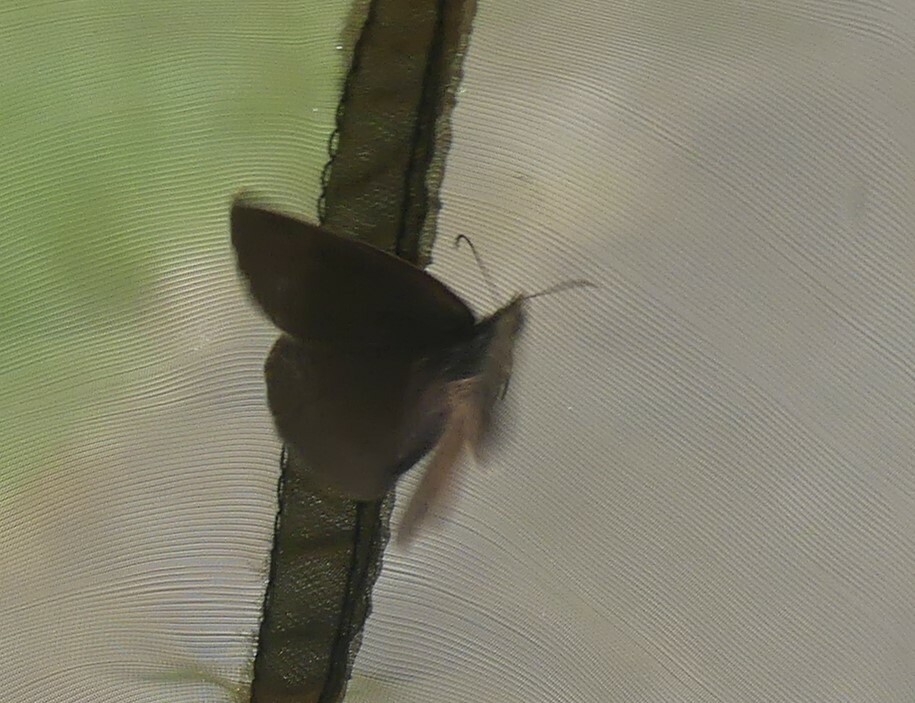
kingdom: Animalia
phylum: Arthropoda
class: Insecta
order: Lepidoptera
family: Nymphalidae
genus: Aphantopus
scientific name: Aphantopus hyperantus
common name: Ringlet
